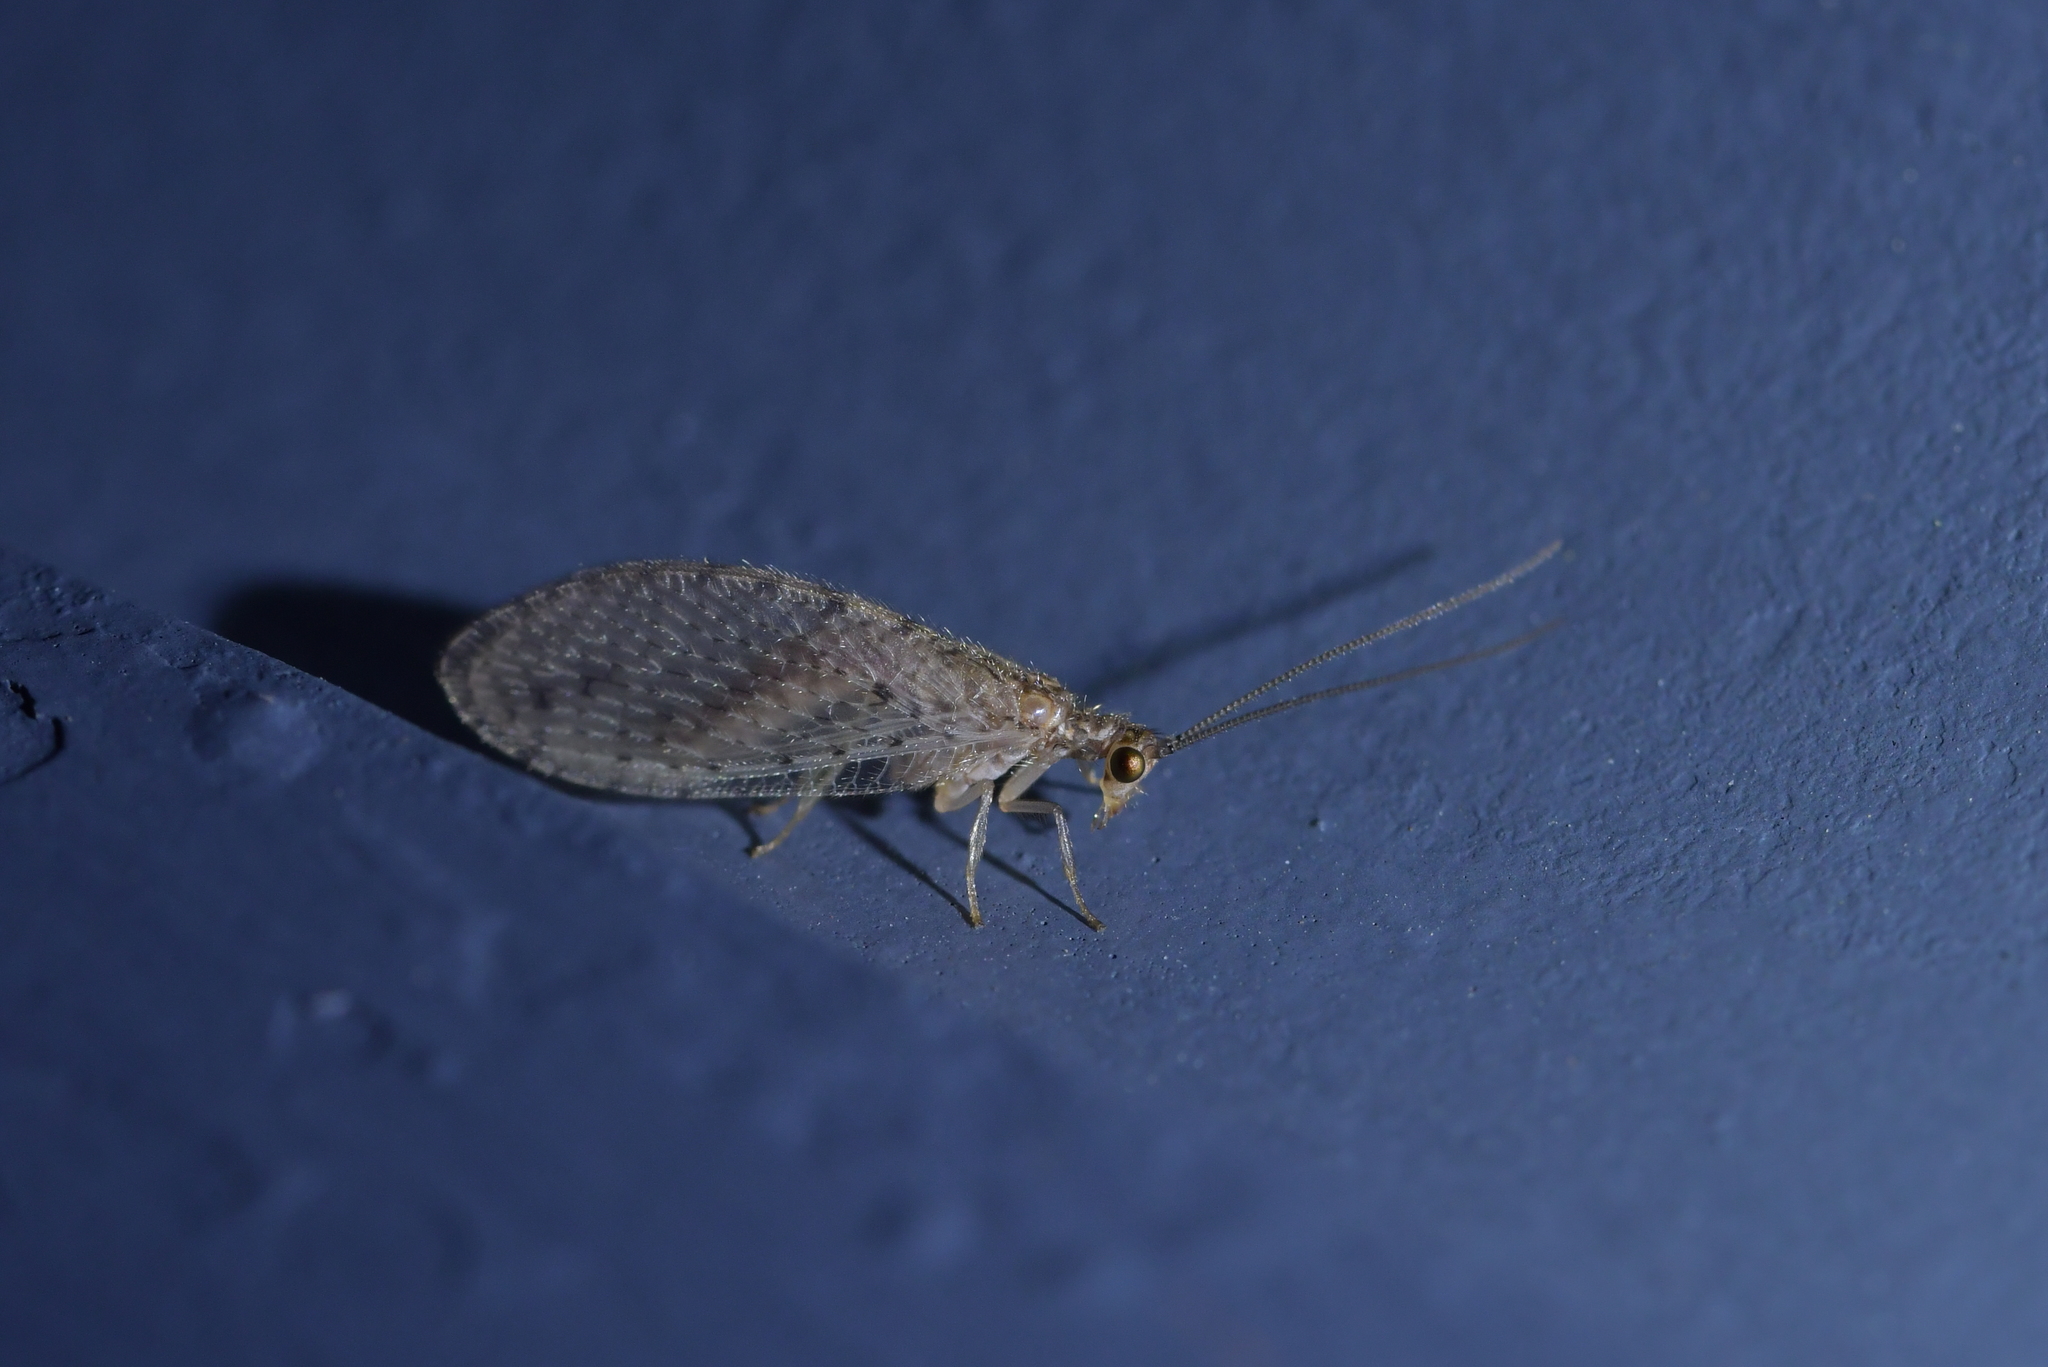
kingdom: Animalia
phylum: Arthropoda
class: Insecta
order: Neuroptera
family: Hemerobiidae
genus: Micromus
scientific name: Micromus tasmaniae
